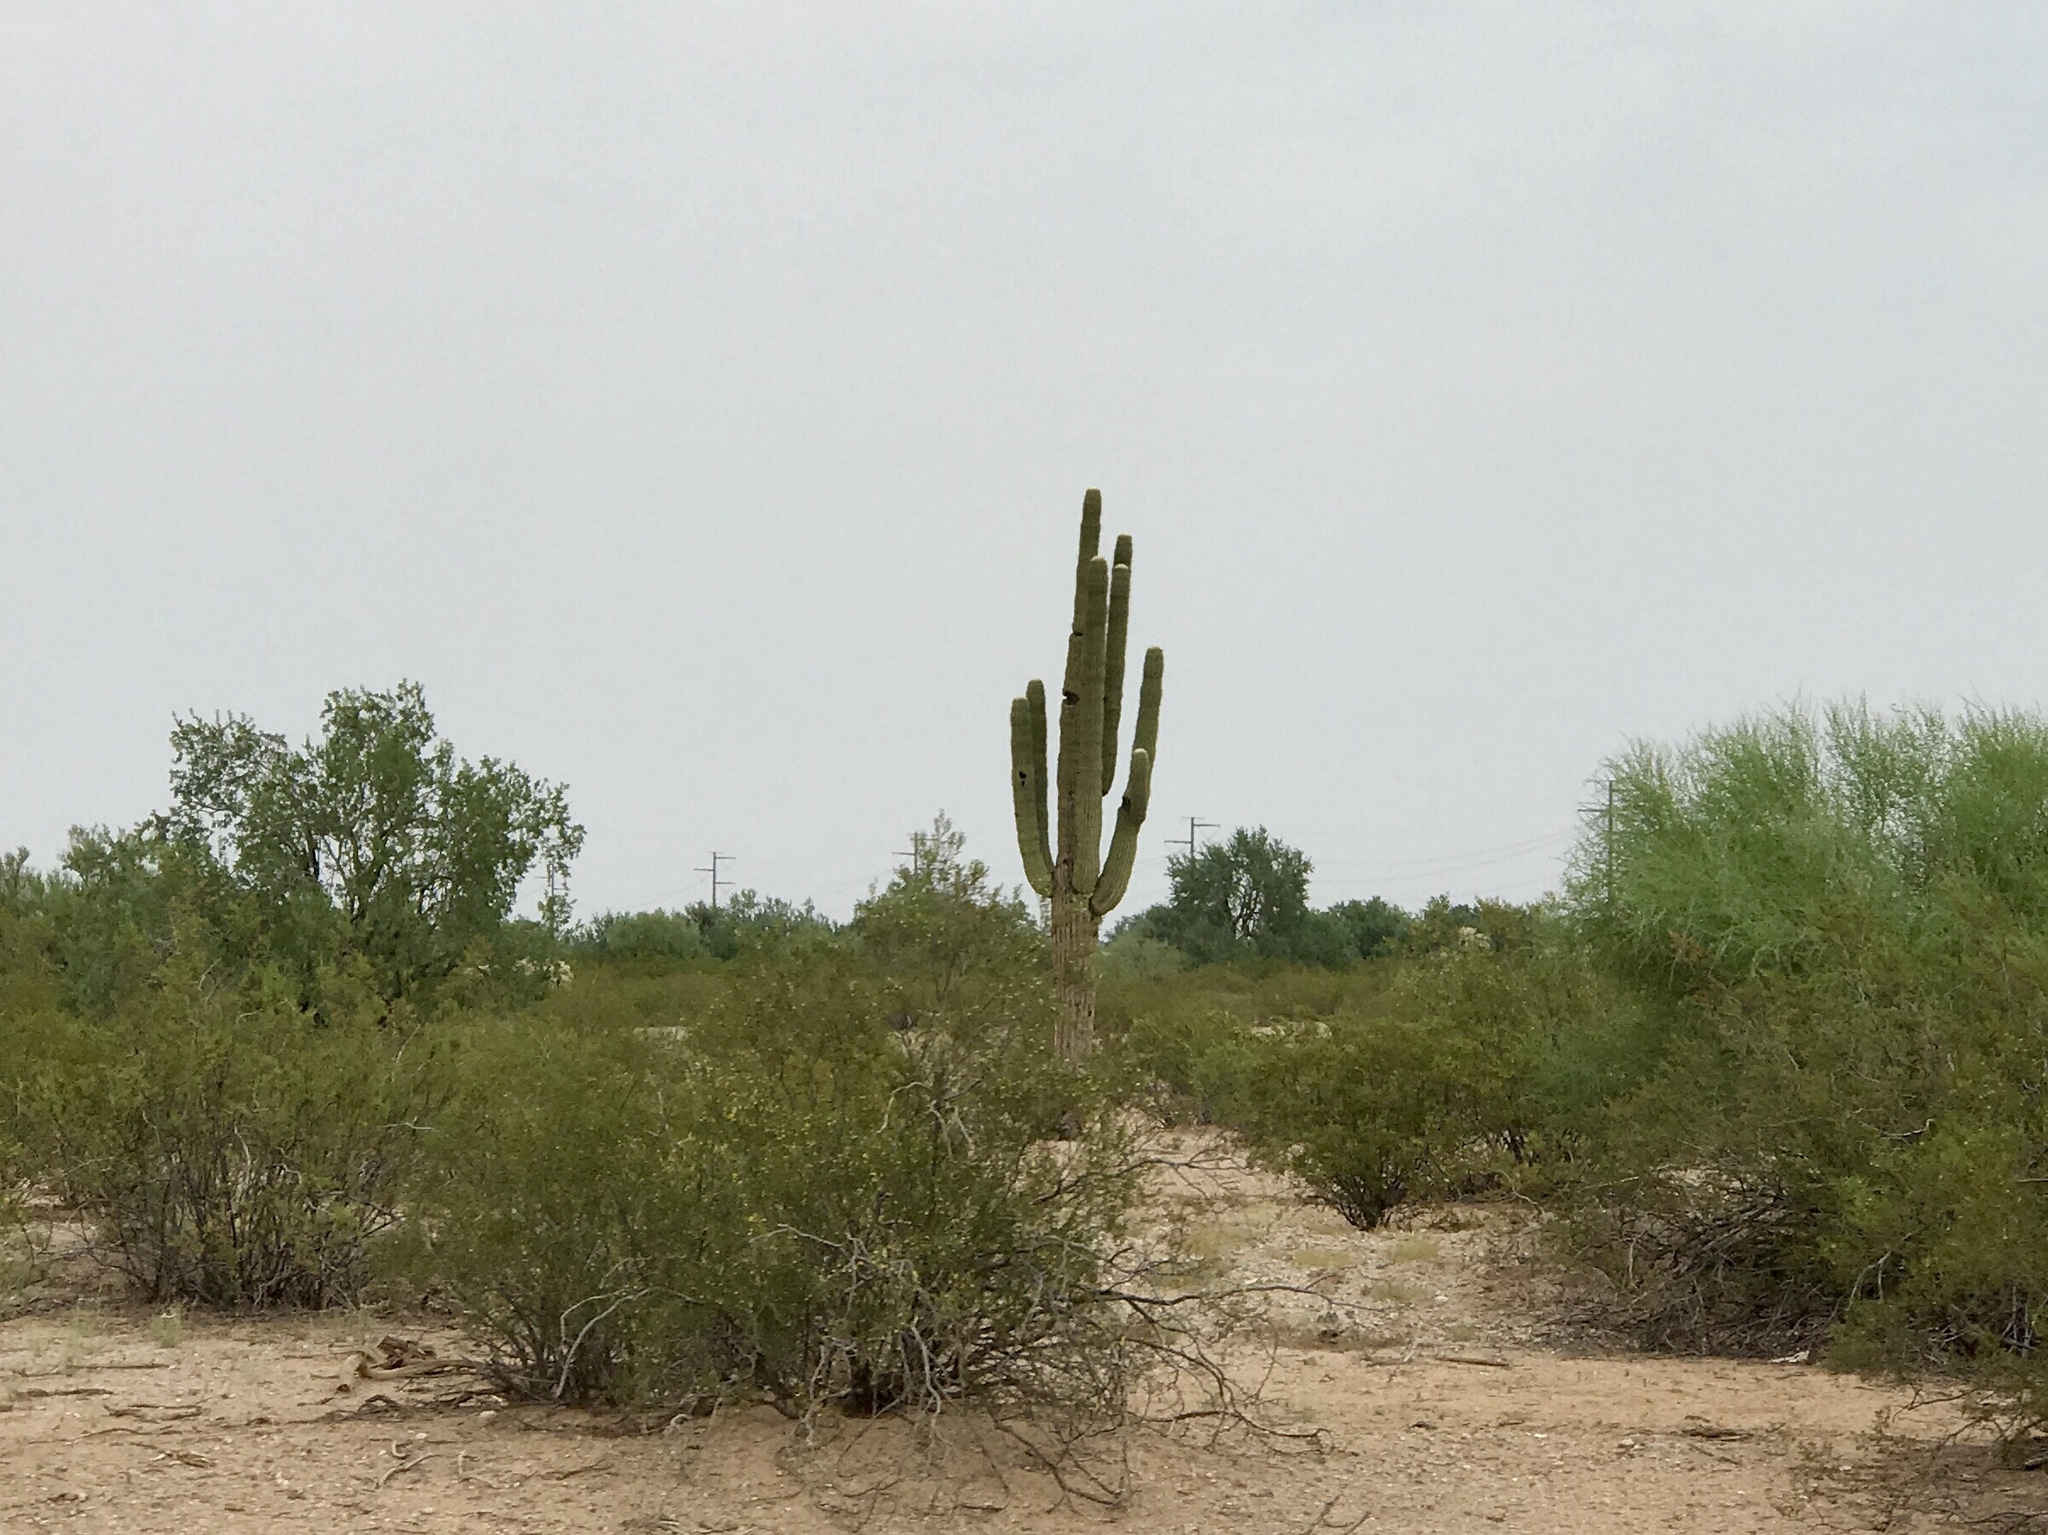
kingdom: Plantae
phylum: Tracheophyta
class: Magnoliopsida
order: Caryophyllales
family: Cactaceae
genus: Carnegiea
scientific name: Carnegiea gigantea
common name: Saguaro
